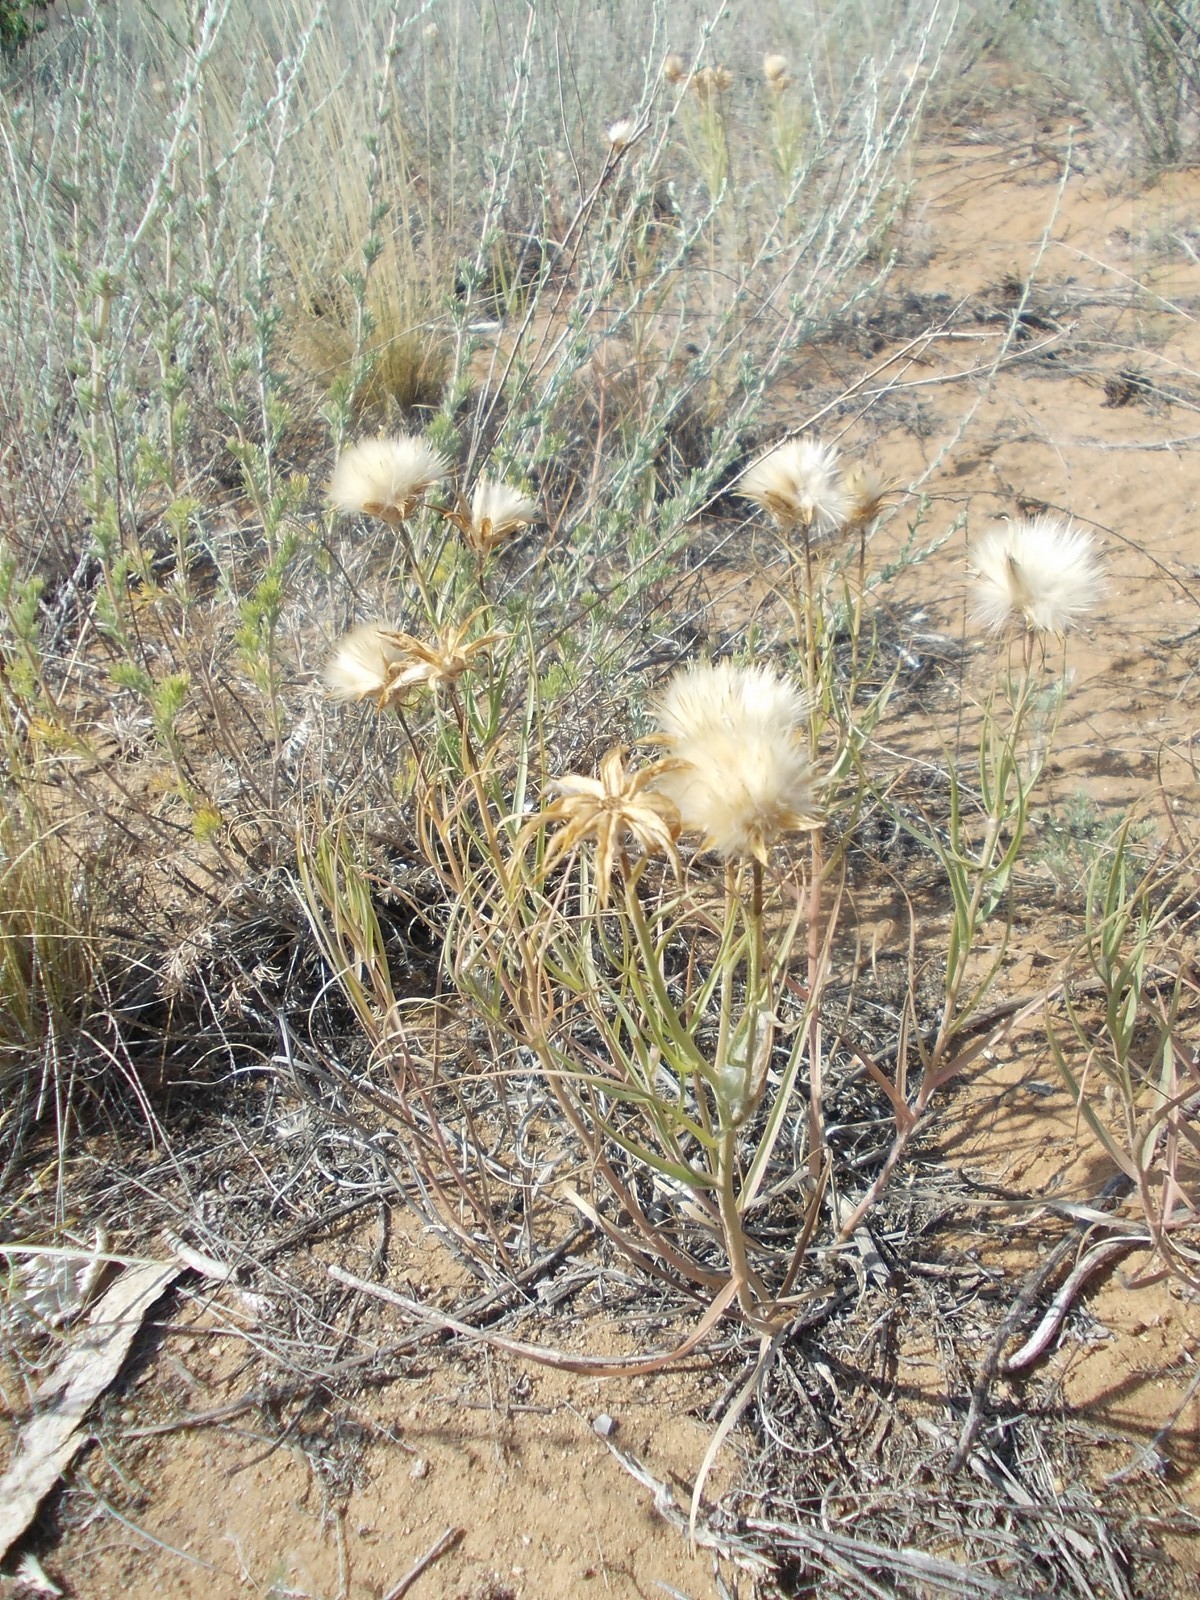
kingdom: Plantae
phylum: Tracheophyta
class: Magnoliopsida
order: Asterales
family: Asteraceae
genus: Gelasia
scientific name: Gelasia ensifolia
